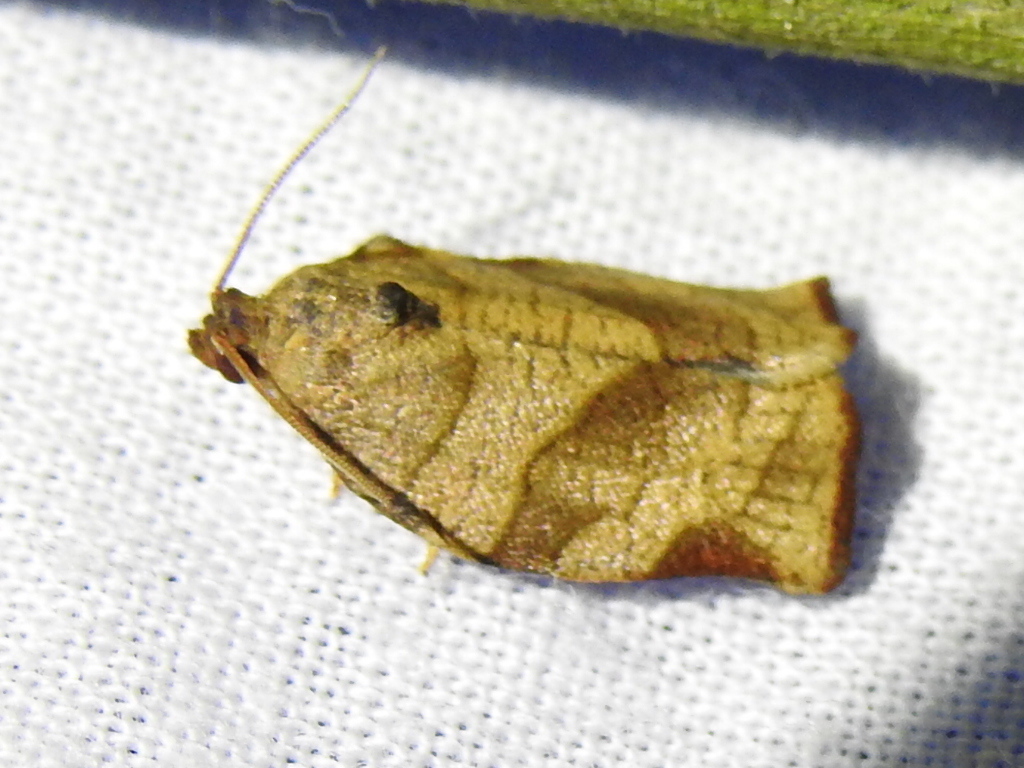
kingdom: Animalia
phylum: Arthropoda
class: Insecta
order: Lepidoptera
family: Tortricidae
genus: Choristoneura
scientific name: Choristoneura rosaceana
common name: Oblique-banded leafroller moth
